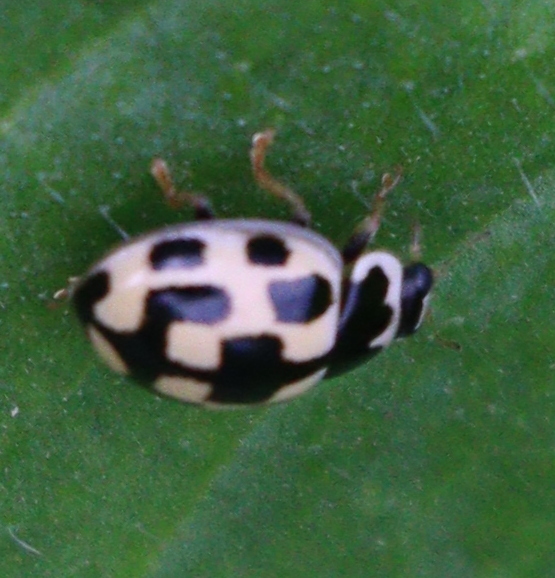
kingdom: Animalia
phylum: Arthropoda
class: Insecta
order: Coleoptera
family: Coccinellidae
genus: Propylaea
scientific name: Propylaea quatuordecimpunctata
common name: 14-spotted ladybird beetle
